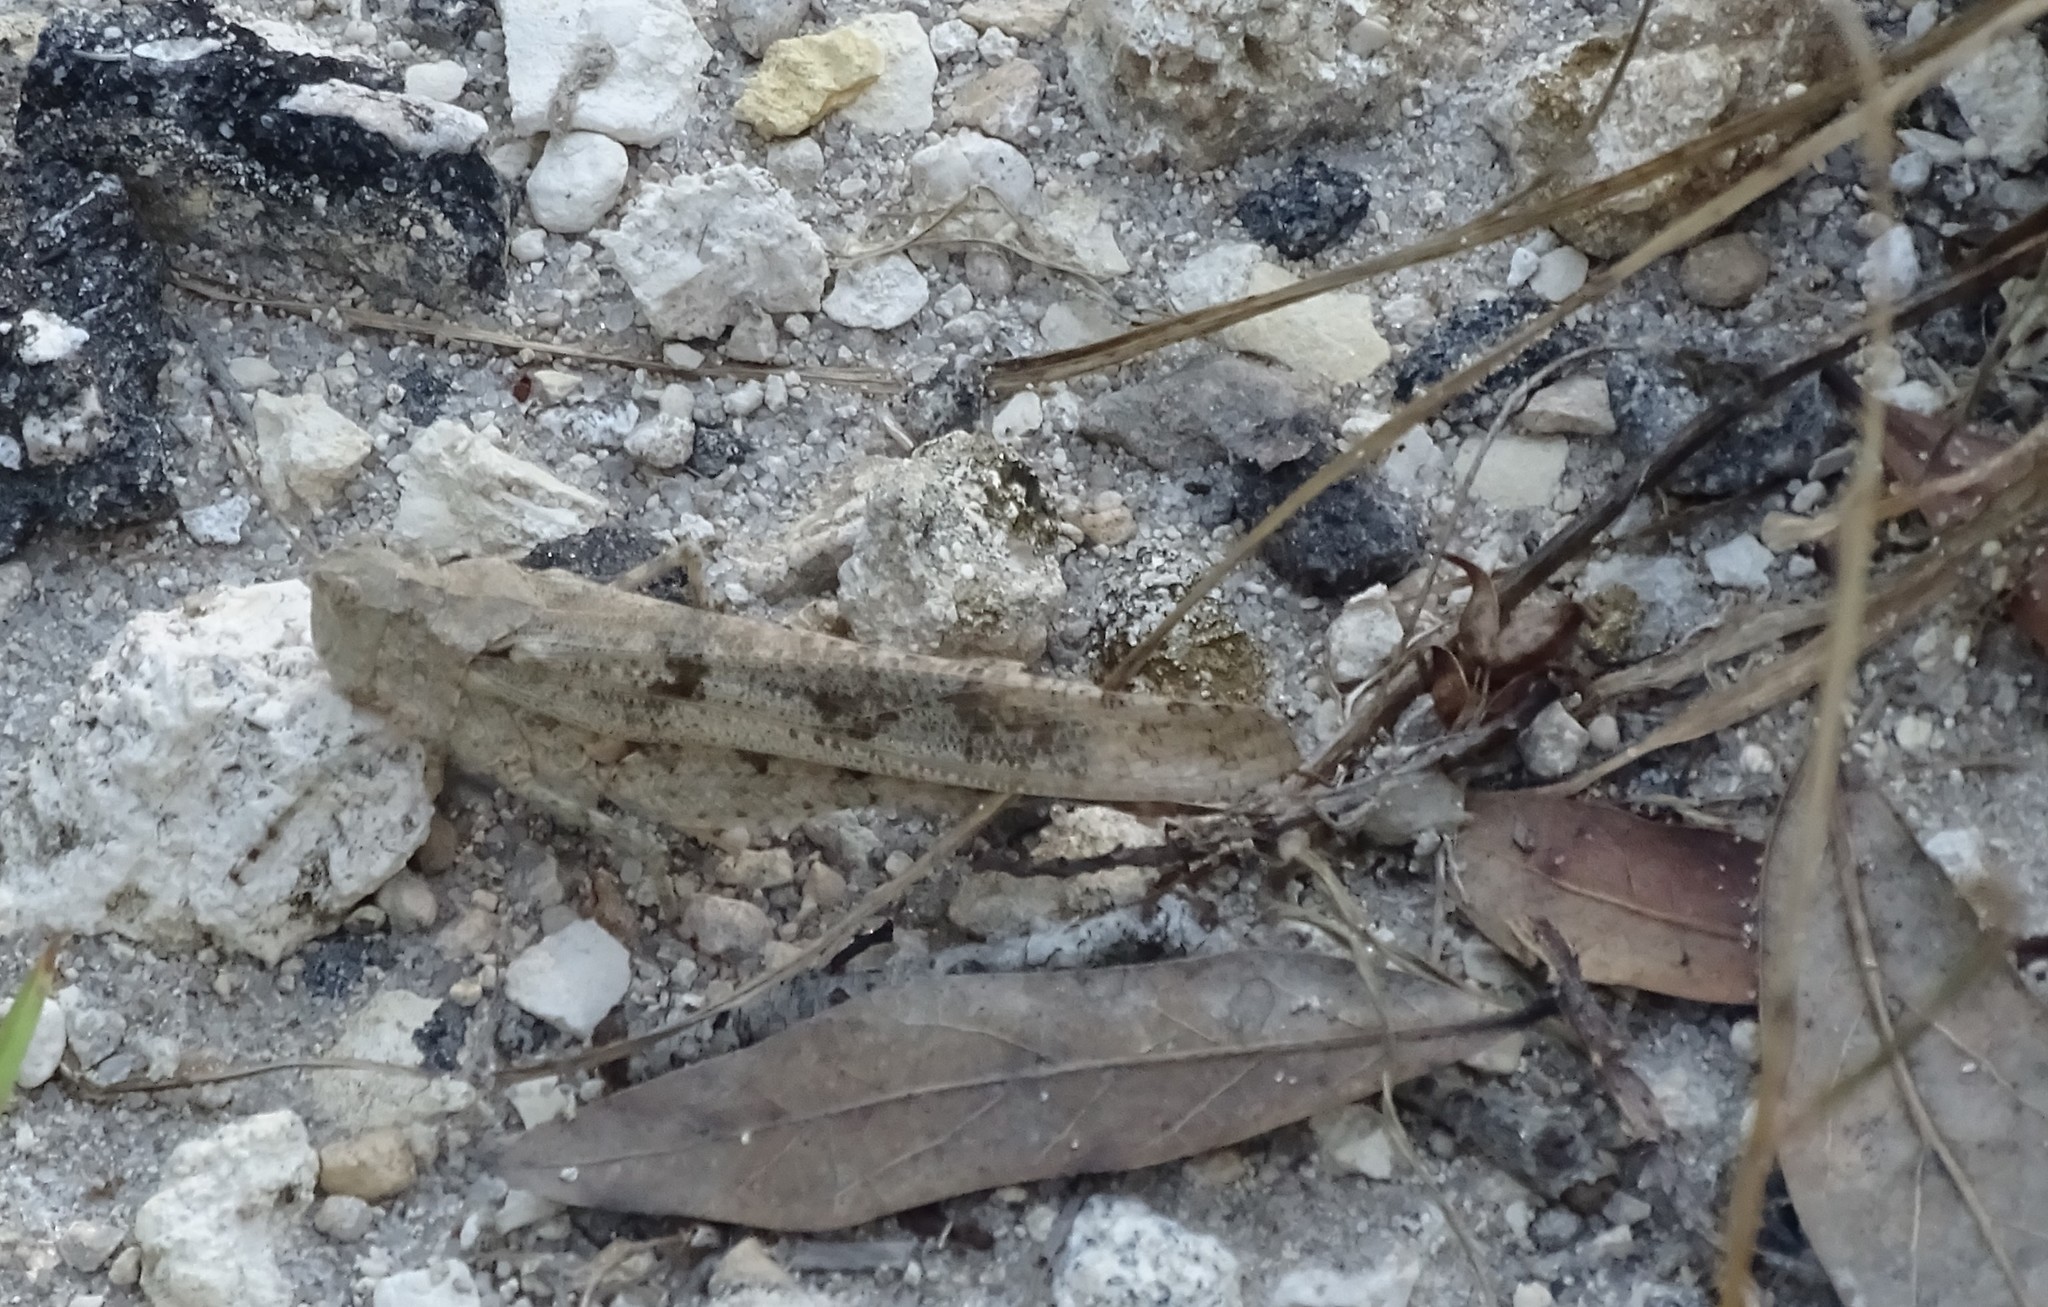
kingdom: Animalia
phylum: Arthropoda
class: Insecta
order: Orthoptera
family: Acrididae
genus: Trimerotropis
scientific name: Trimerotropis maritima
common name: Seaside locust
